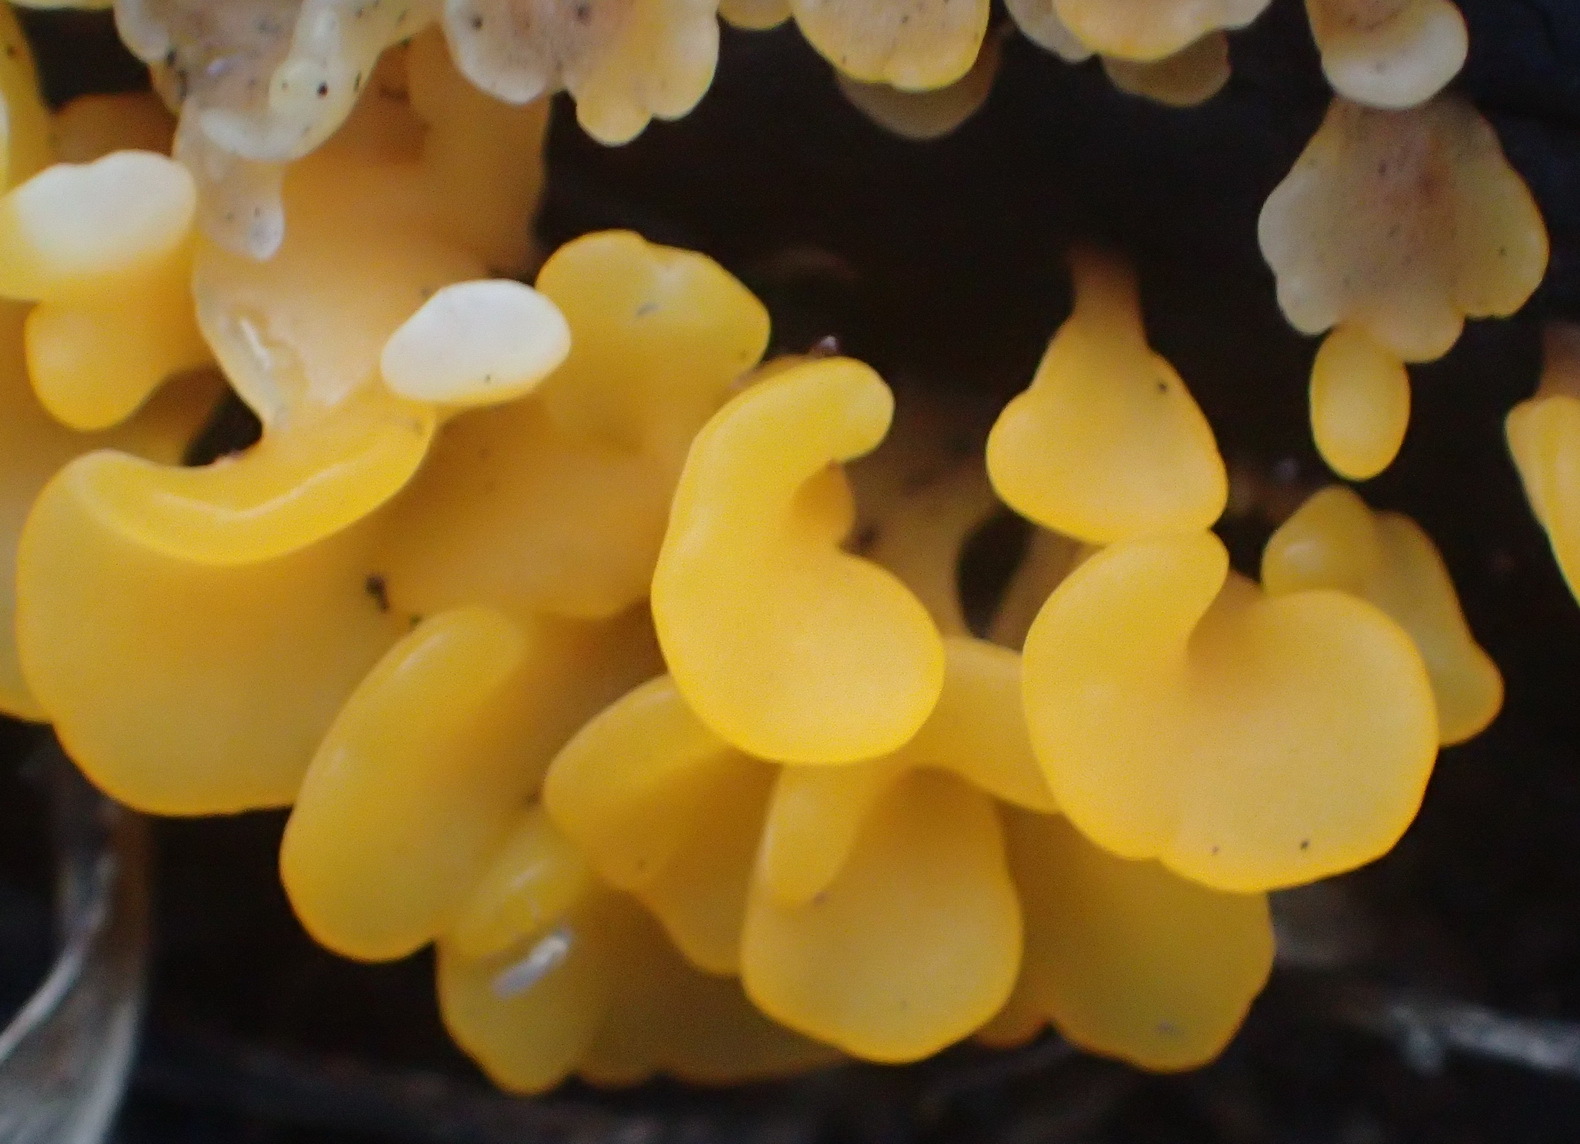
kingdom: Fungi
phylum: Basidiomycota
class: Dacrymycetes
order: Dacrymycetales
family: Dacrymycetaceae
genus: Dacrymyces
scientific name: Dacrymyces spathularius
